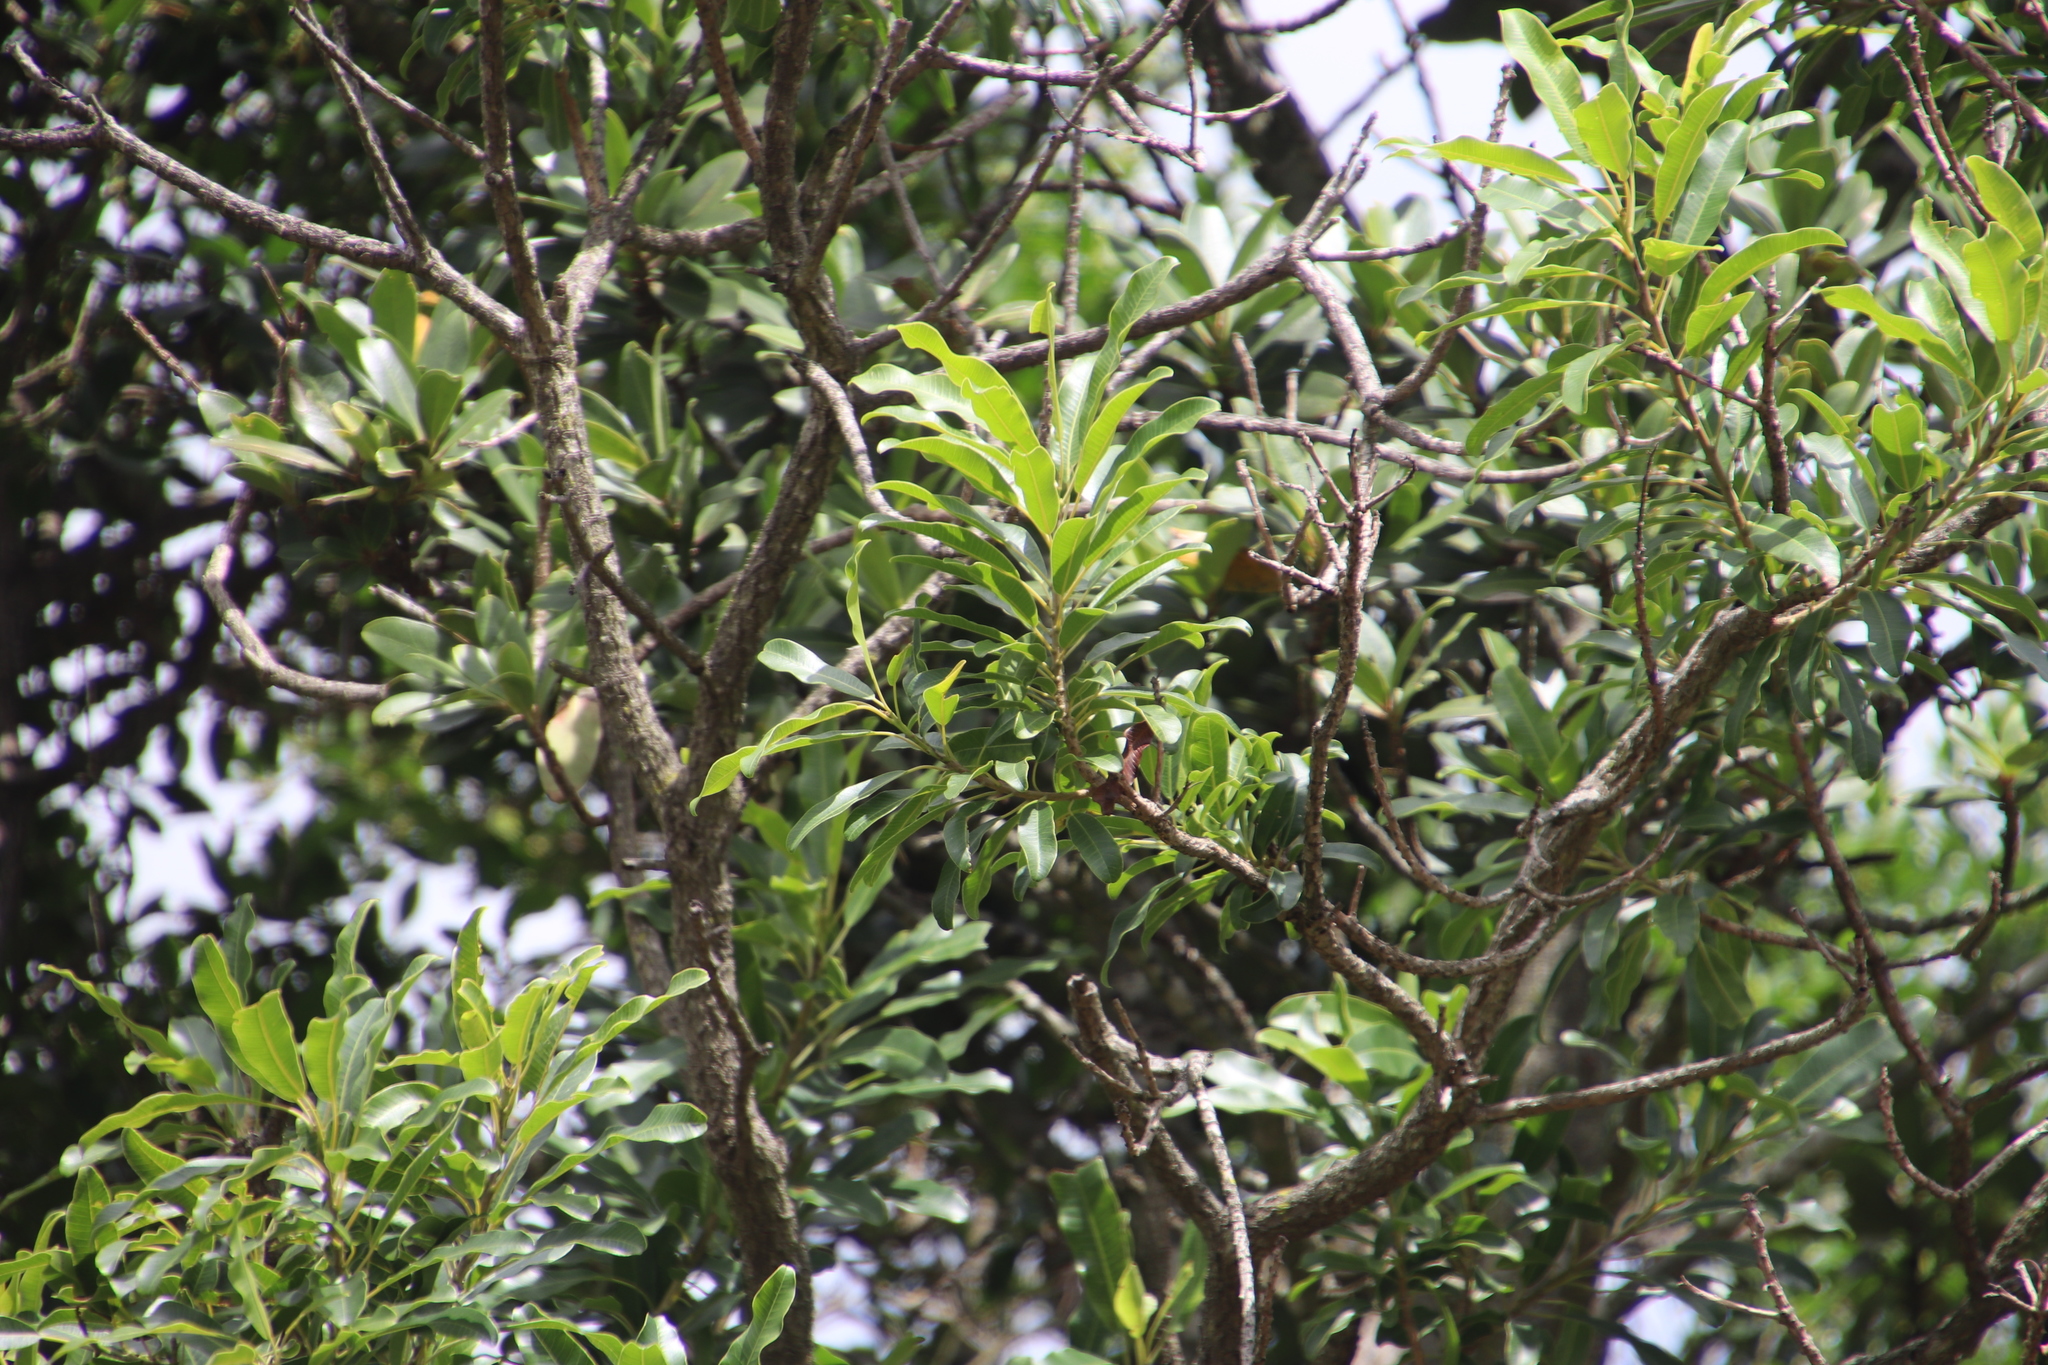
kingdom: Plantae
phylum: Tracheophyta
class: Magnoliopsida
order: Sapindales
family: Anacardiaceae
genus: Protorhus
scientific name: Protorhus longifolia
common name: Red-beech
